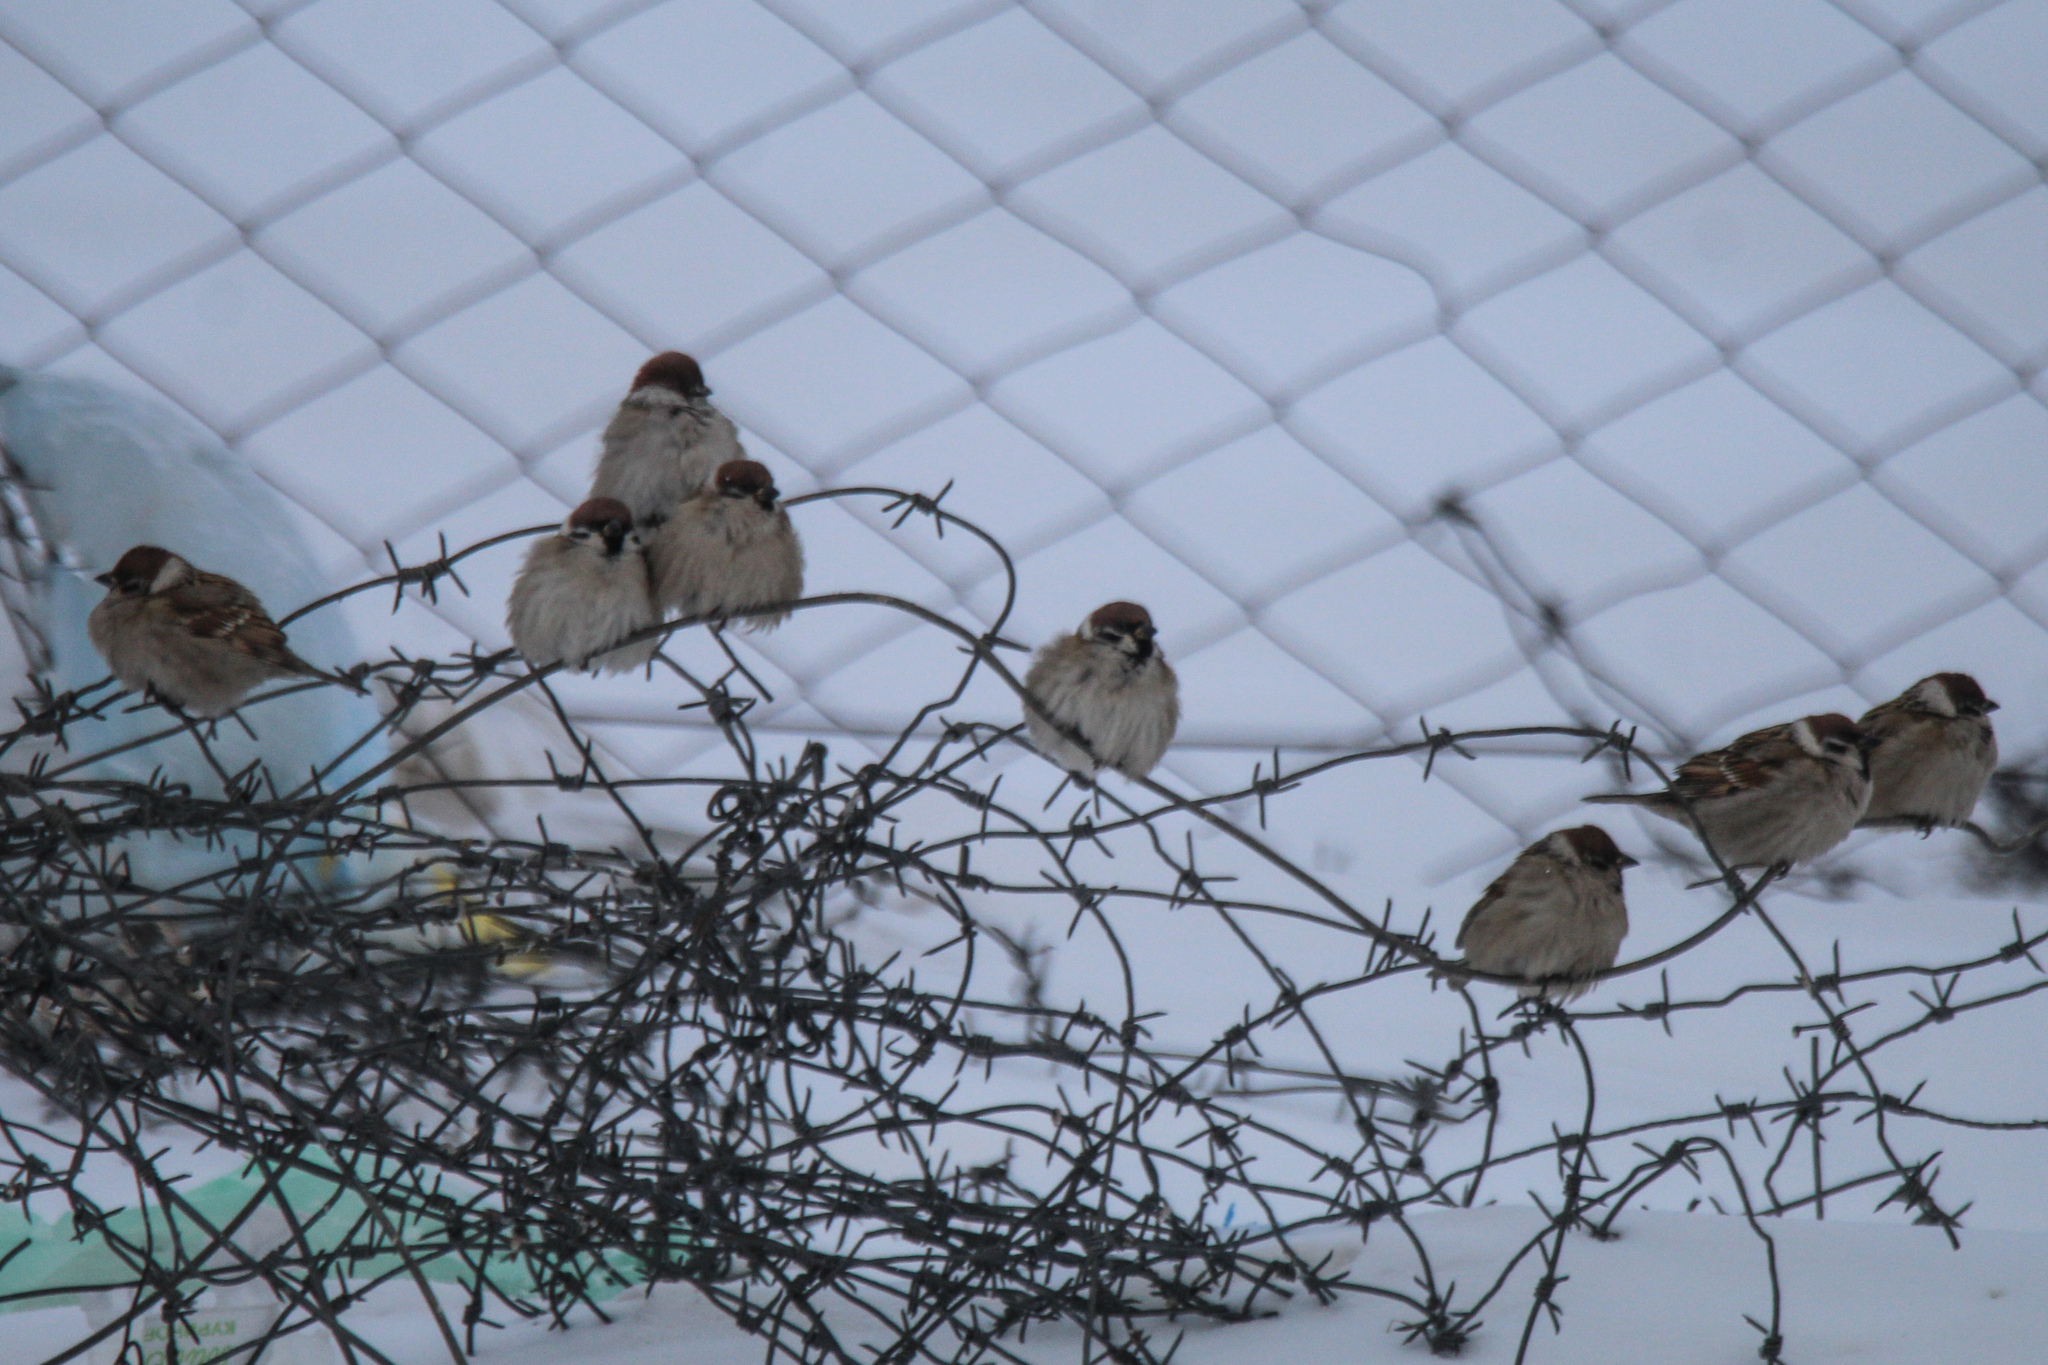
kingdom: Animalia
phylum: Chordata
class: Aves
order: Passeriformes
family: Passeridae
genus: Passer
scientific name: Passer montanus
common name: Eurasian tree sparrow
